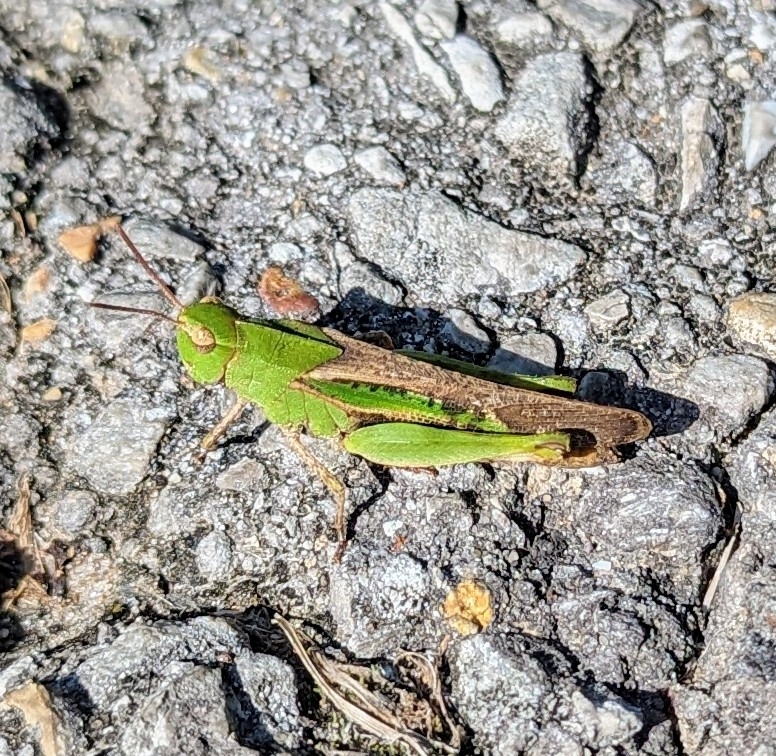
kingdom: Animalia
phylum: Arthropoda
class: Insecta
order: Orthoptera
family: Acrididae
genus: Chortophaga
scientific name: Chortophaga viridifasciata
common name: Green-striped grasshopper
